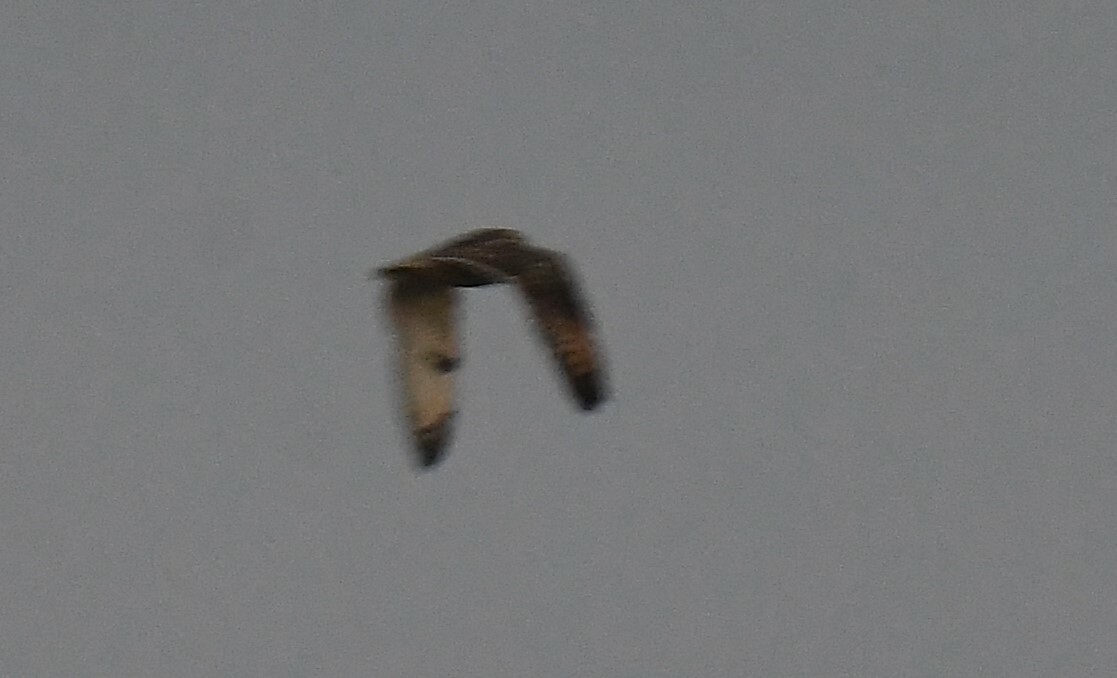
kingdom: Animalia
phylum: Chordata
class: Aves
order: Strigiformes
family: Strigidae
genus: Asio
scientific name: Asio flammeus
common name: Short-eared owl
